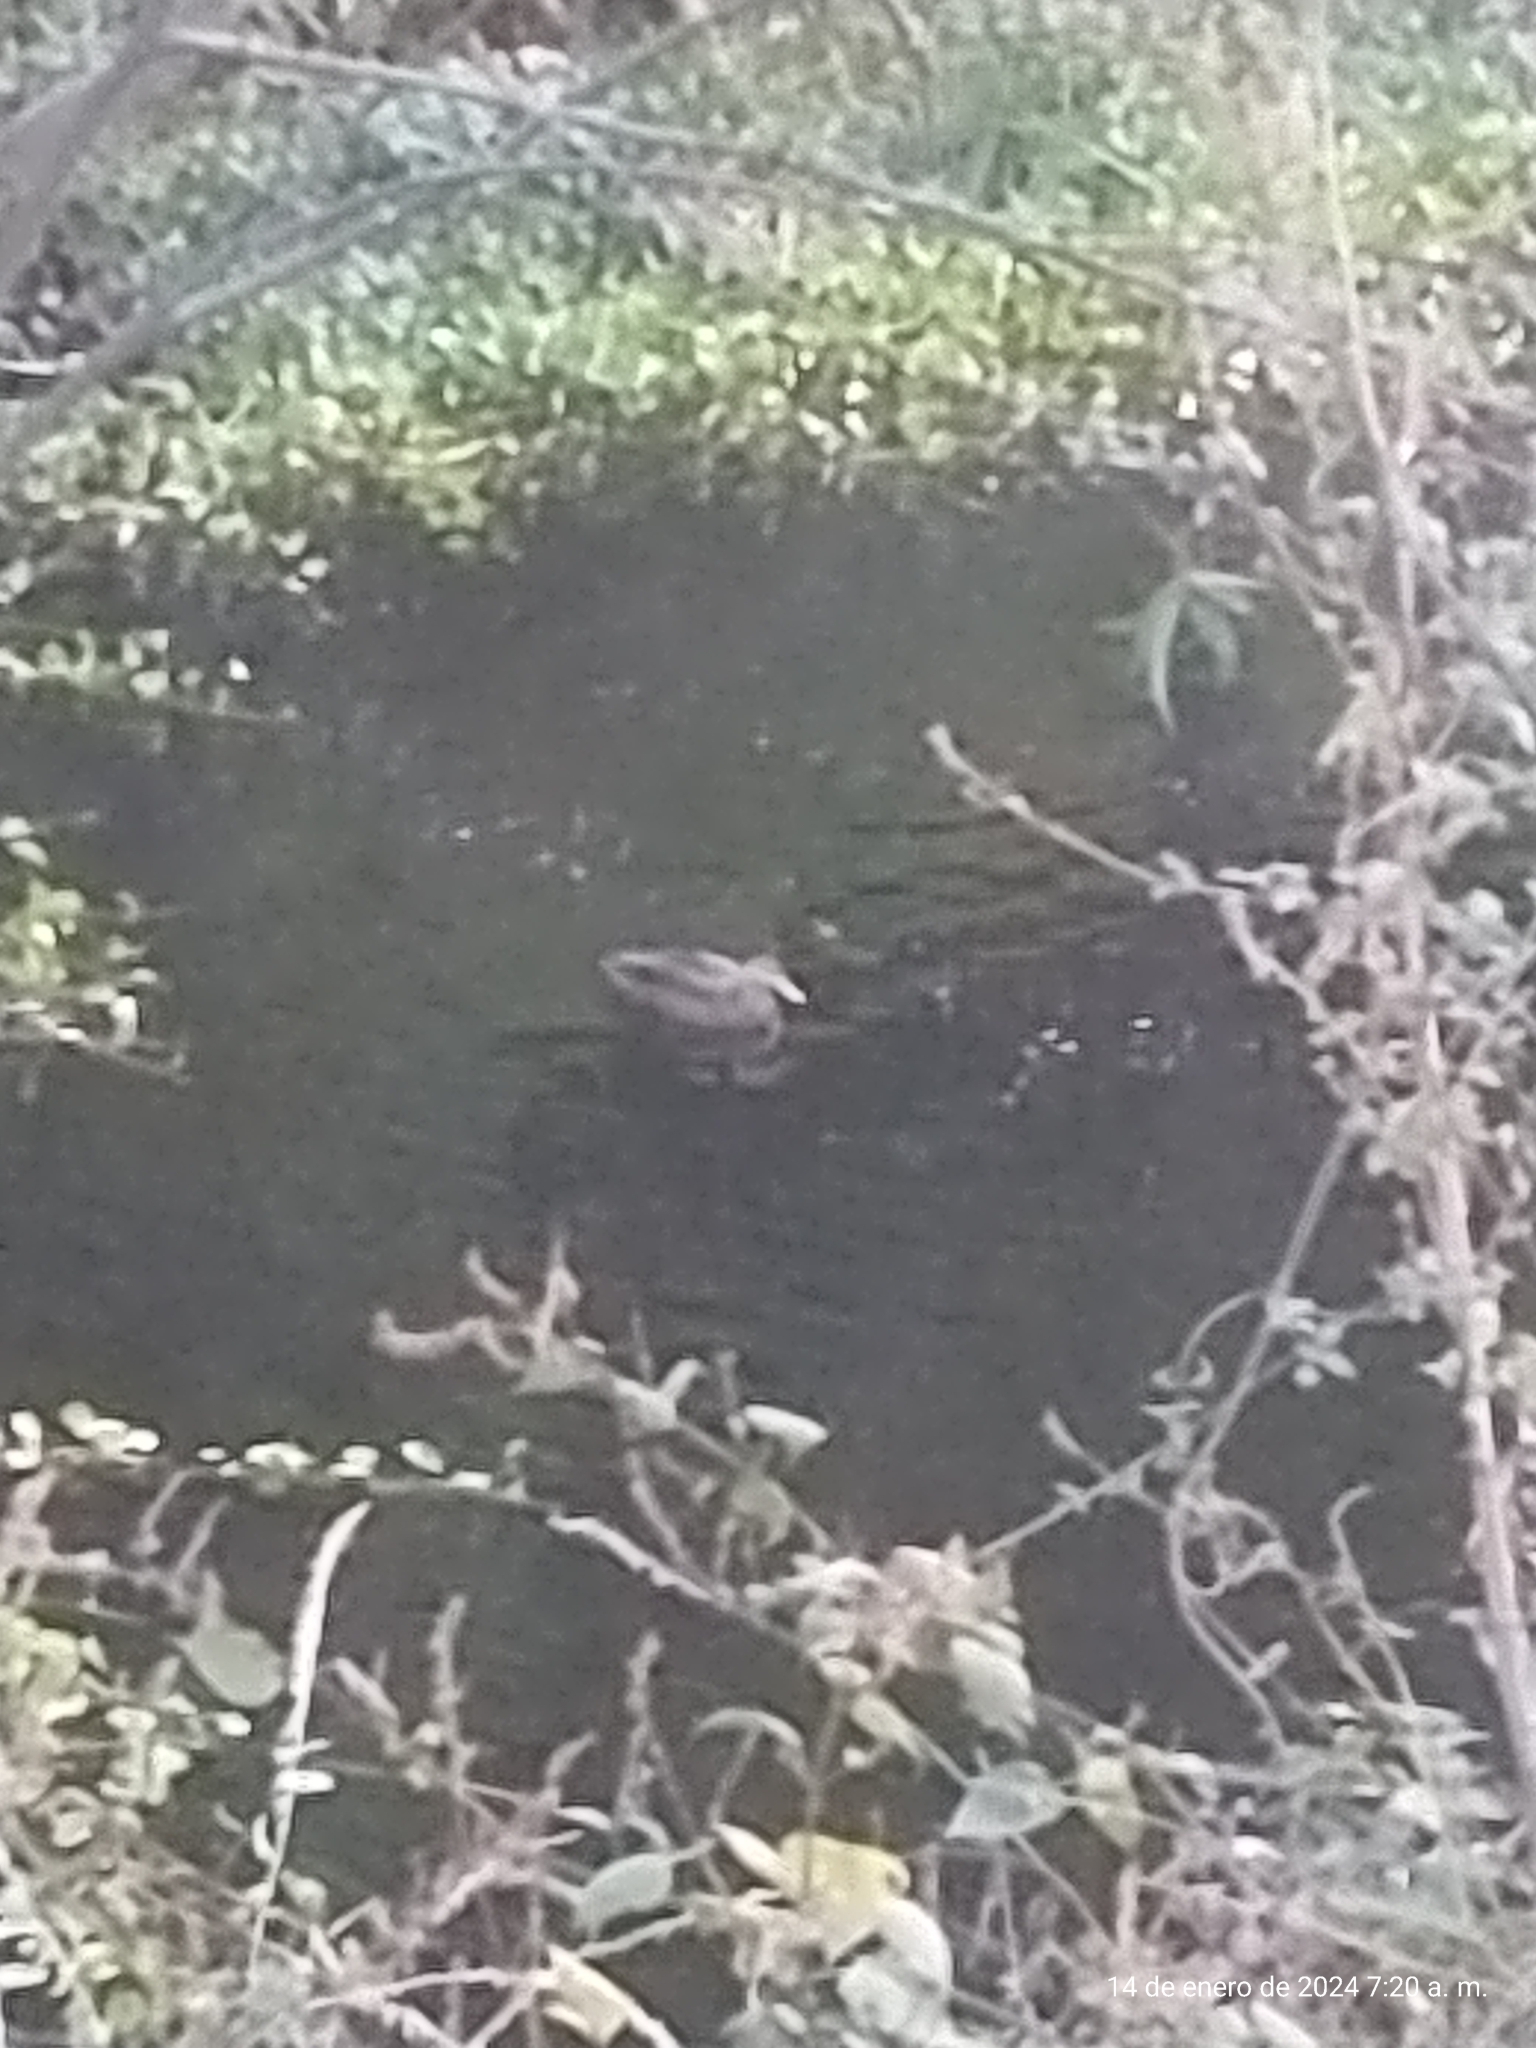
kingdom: Animalia
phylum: Chordata
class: Aves
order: Anseriformes
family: Anatidae
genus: Anas
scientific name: Anas diazi
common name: Mexican duck
